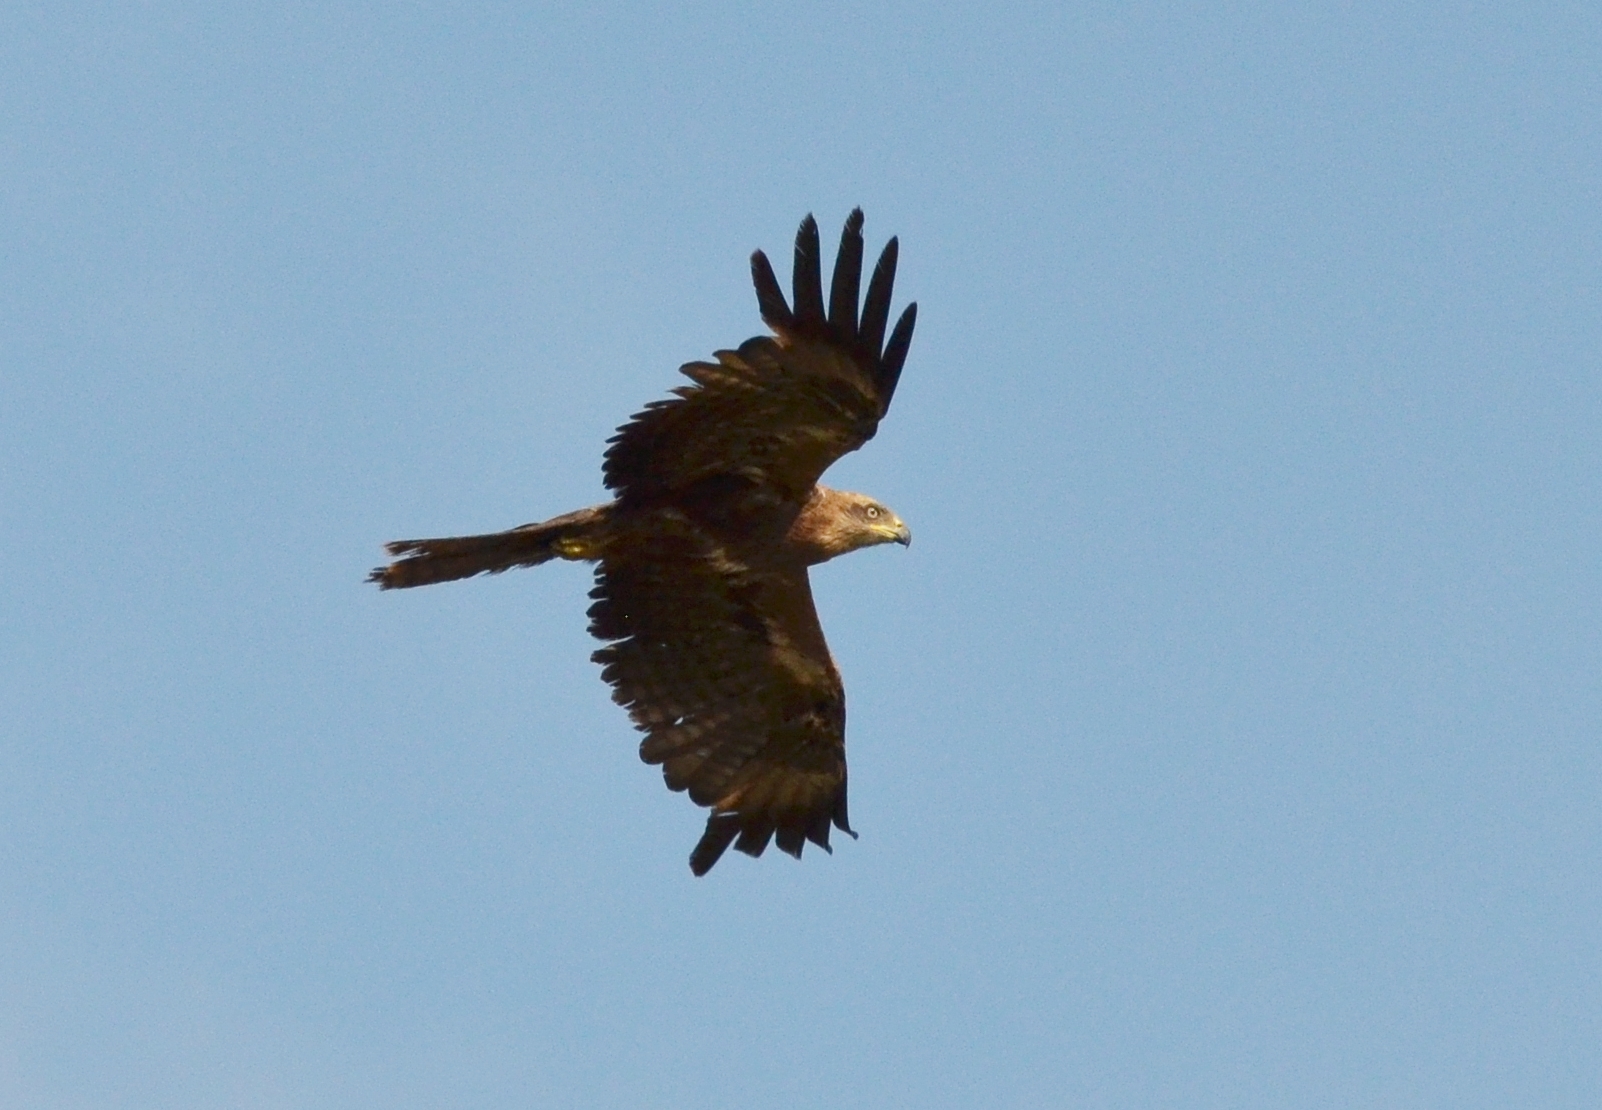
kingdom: Animalia
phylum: Chordata
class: Aves
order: Accipitriformes
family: Accipitridae
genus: Milvus
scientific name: Milvus migrans
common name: Black kite
